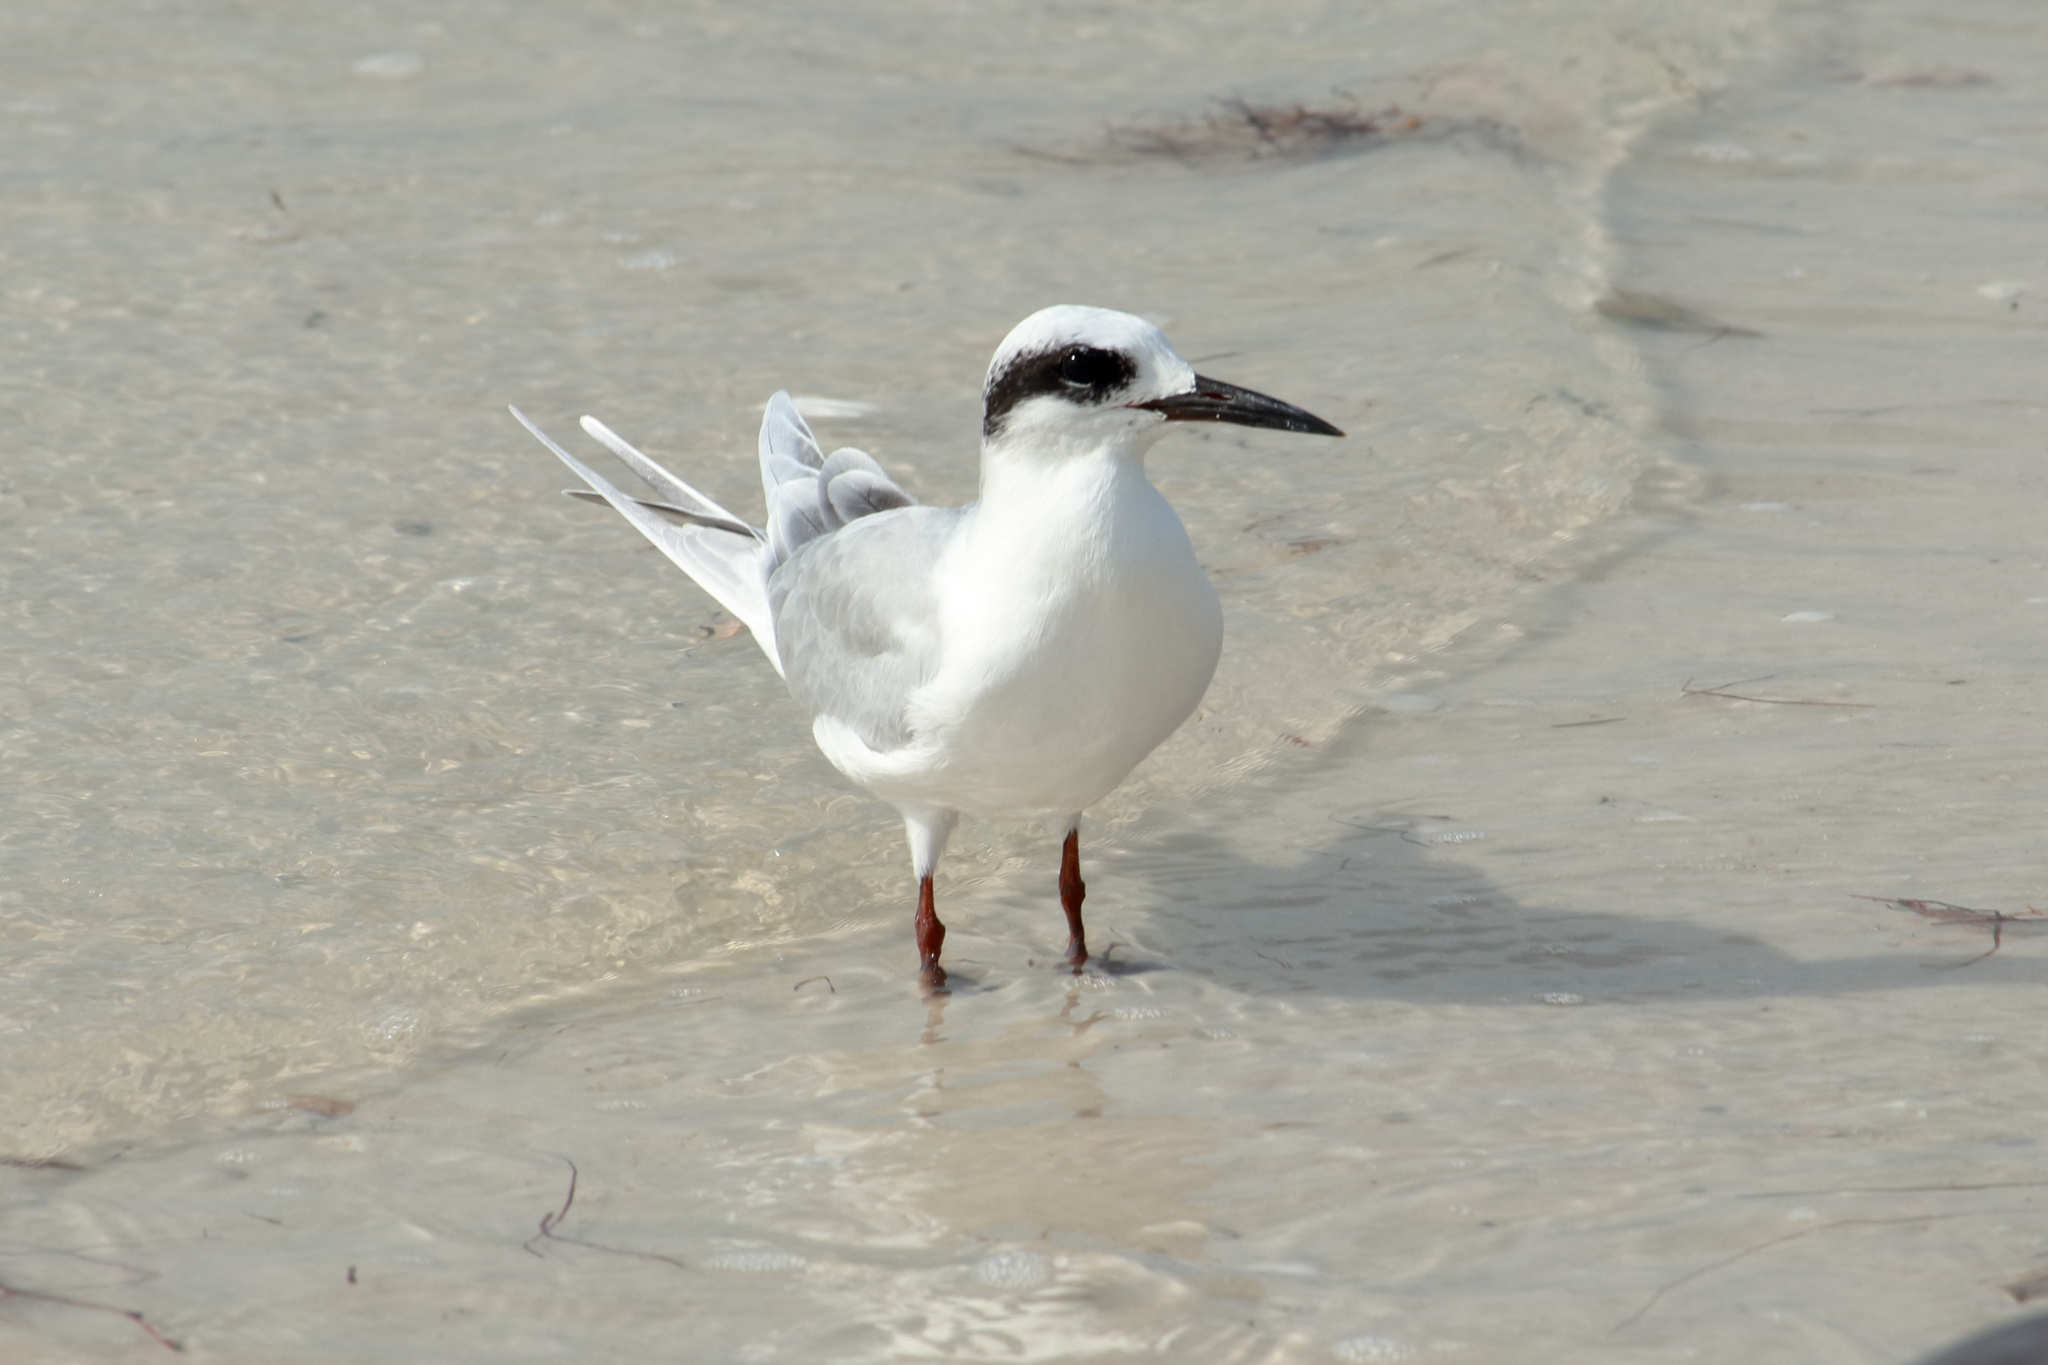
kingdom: Animalia
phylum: Chordata
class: Aves
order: Charadriiformes
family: Laridae
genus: Sterna
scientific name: Sterna forsteri
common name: Forster's tern
